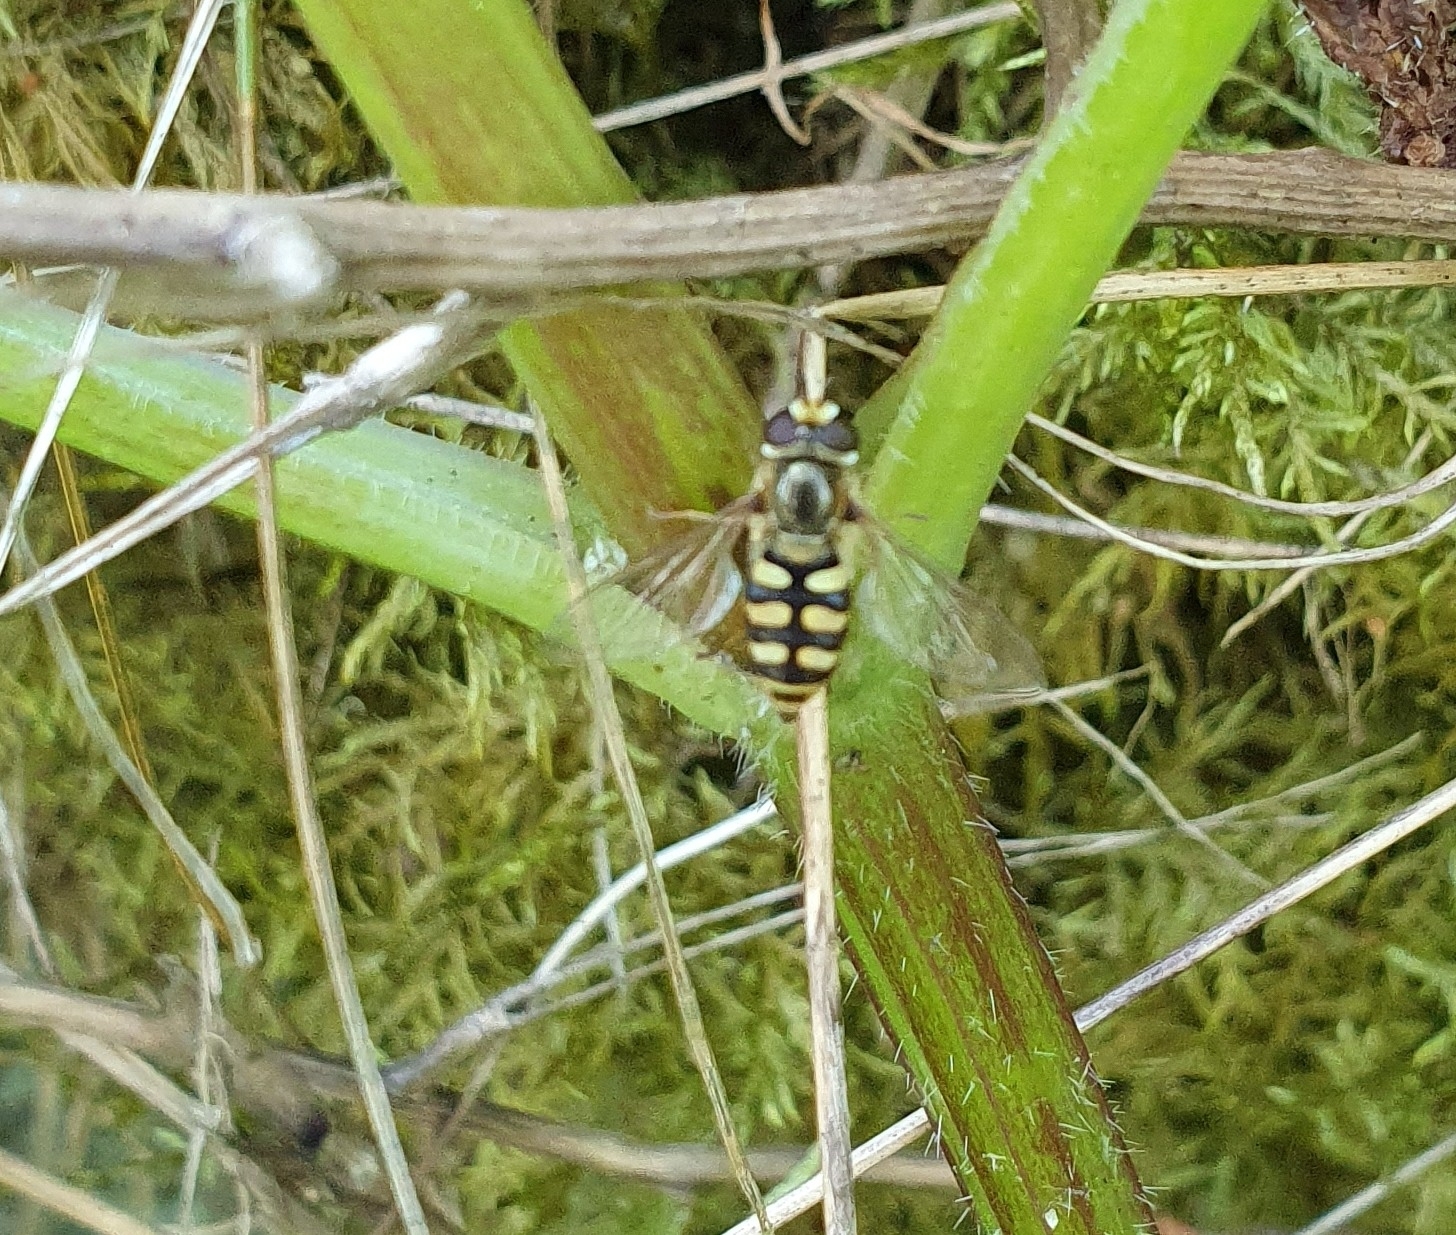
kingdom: Animalia
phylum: Arthropoda
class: Insecta
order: Diptera
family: Syrphidae
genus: Eupeodes
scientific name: Eupeodes corollae
